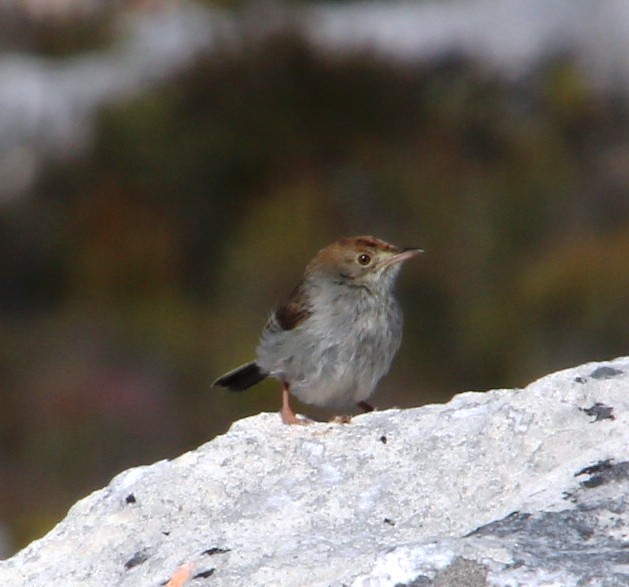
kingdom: Animalia
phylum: Chordata
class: Aves
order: Passeriformes
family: Cisticolidae
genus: Cisticola
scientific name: Cisticola fulvicapilla
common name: Neddicky
